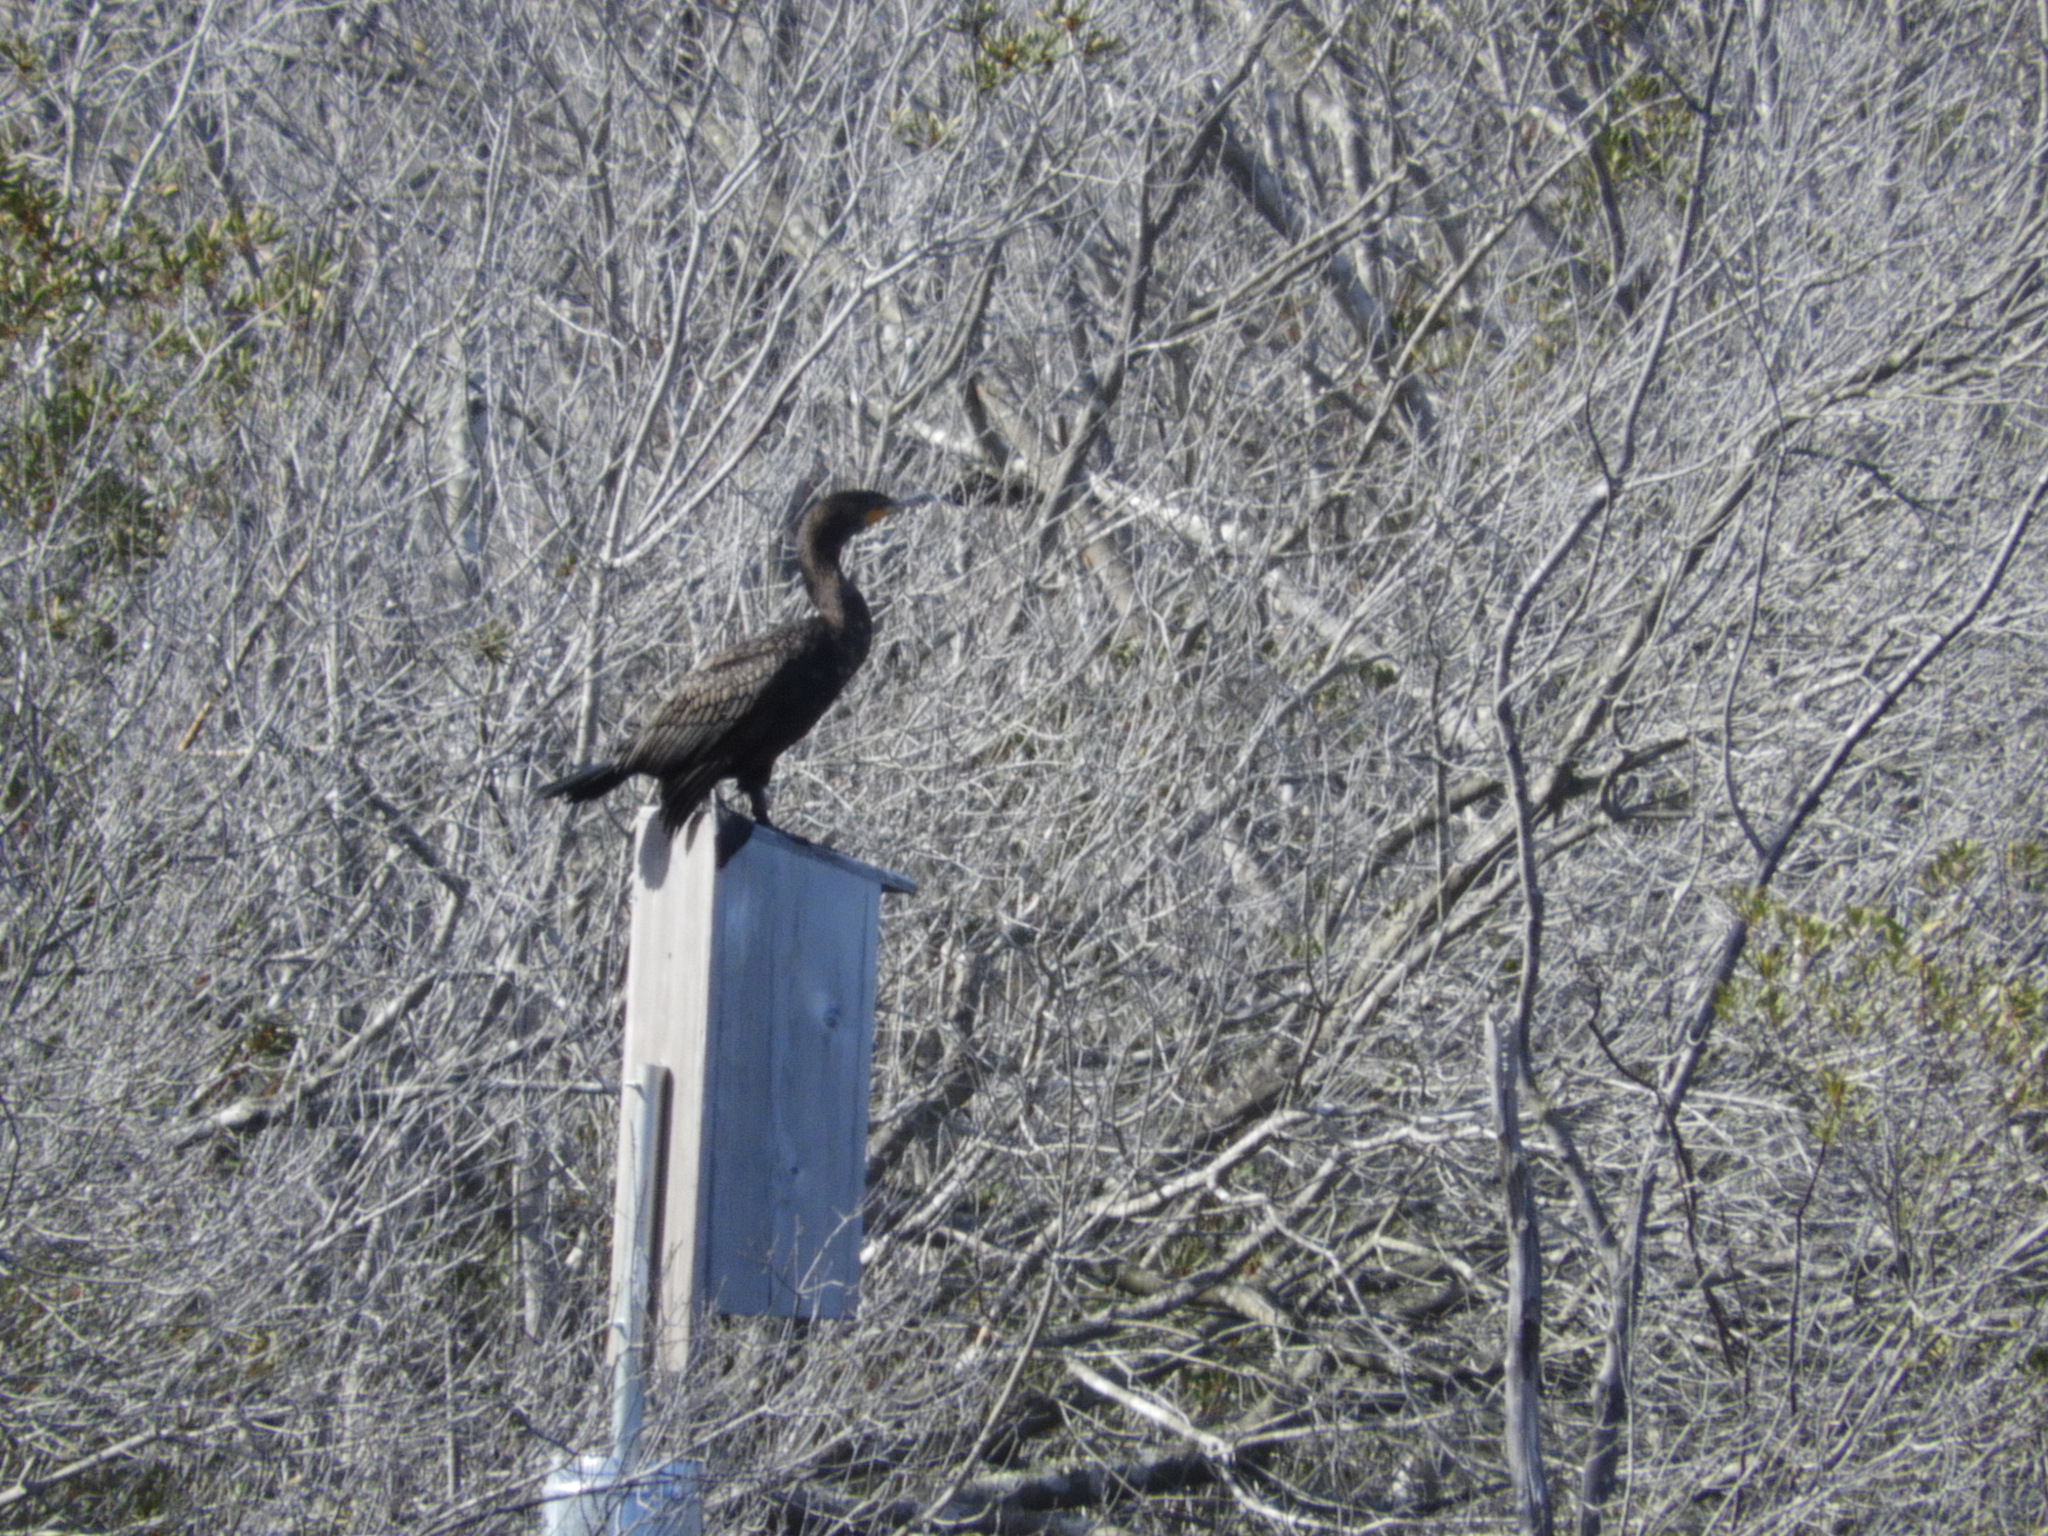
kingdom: Animalia
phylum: Chordata
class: Aves
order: Suliformes
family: Phalacrocoracidae
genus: Phalacrocorax
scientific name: Phalacrocorax auritus
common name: Double-crested cormorant
